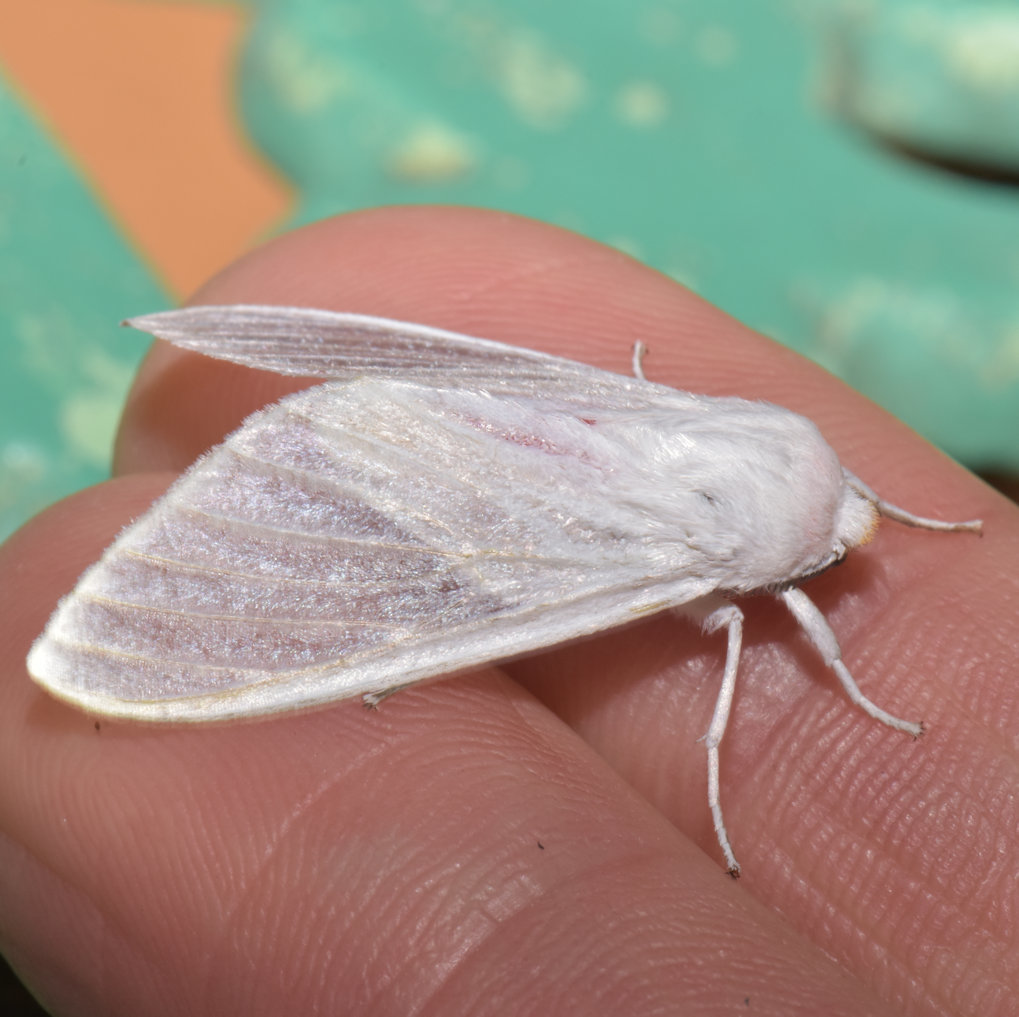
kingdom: Animalia
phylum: Arthropoda
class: Insecta
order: Lepidoptera
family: Erebidae
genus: Eupseudosoma
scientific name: Eupseudosoma involuta
